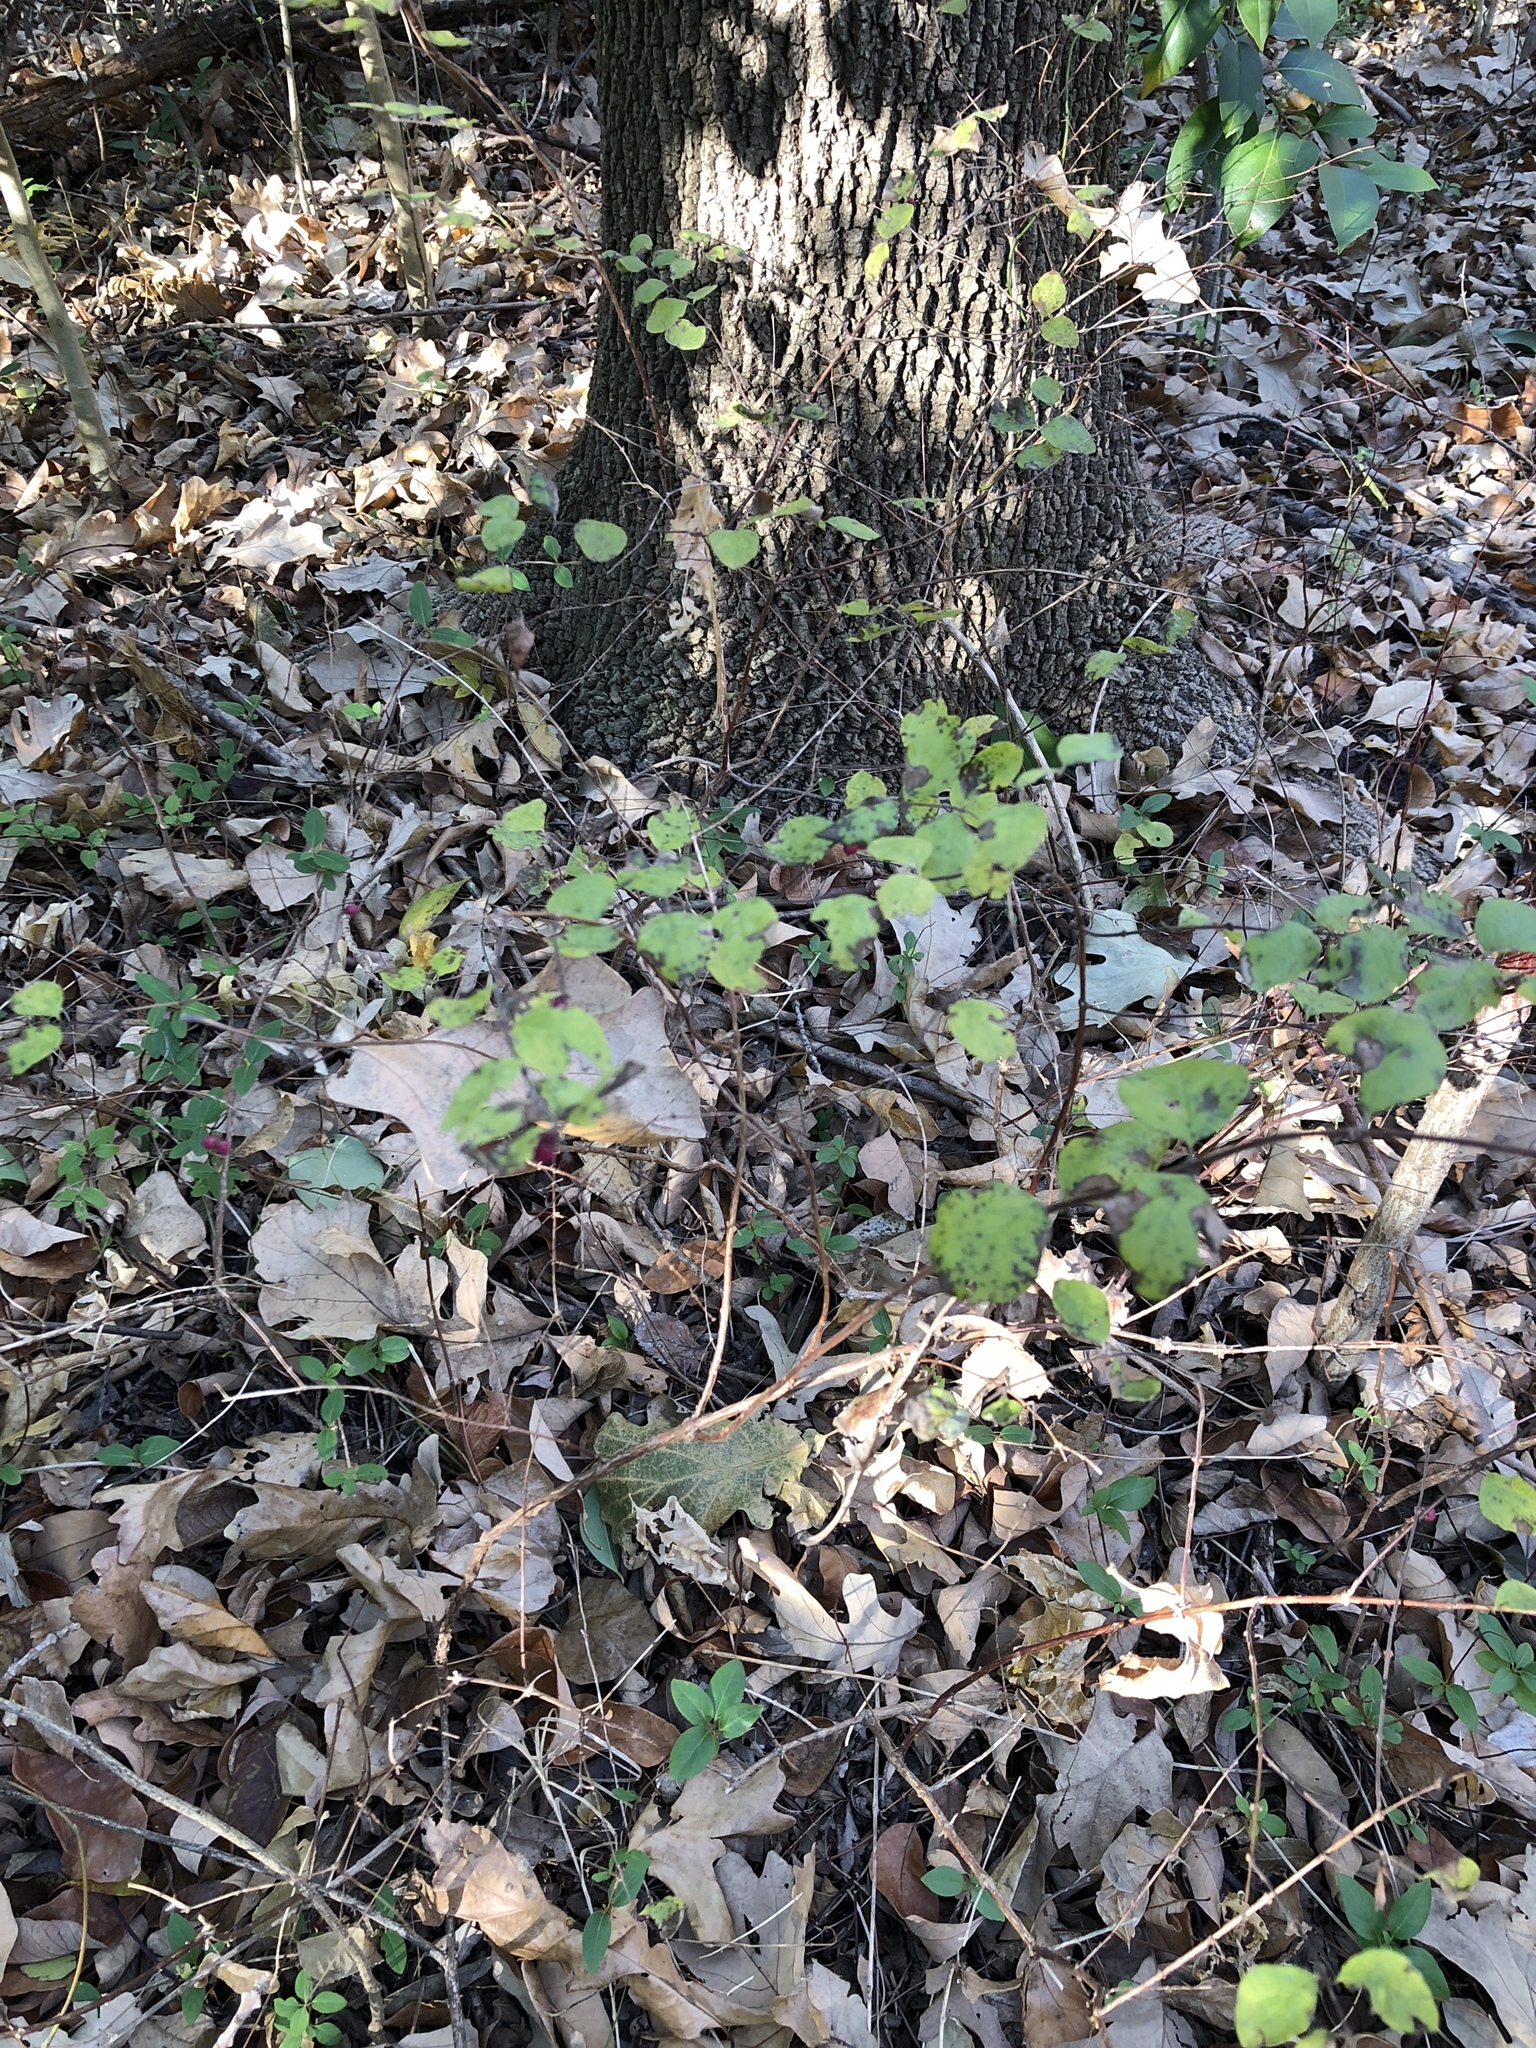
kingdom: Plantae
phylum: Tracheophyta
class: Magnoliopsida
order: Dipsacales
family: Caprifoliaceae
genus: Symphoricarpos
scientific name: Symphoricarpos orbiculatus
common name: Coralberry
